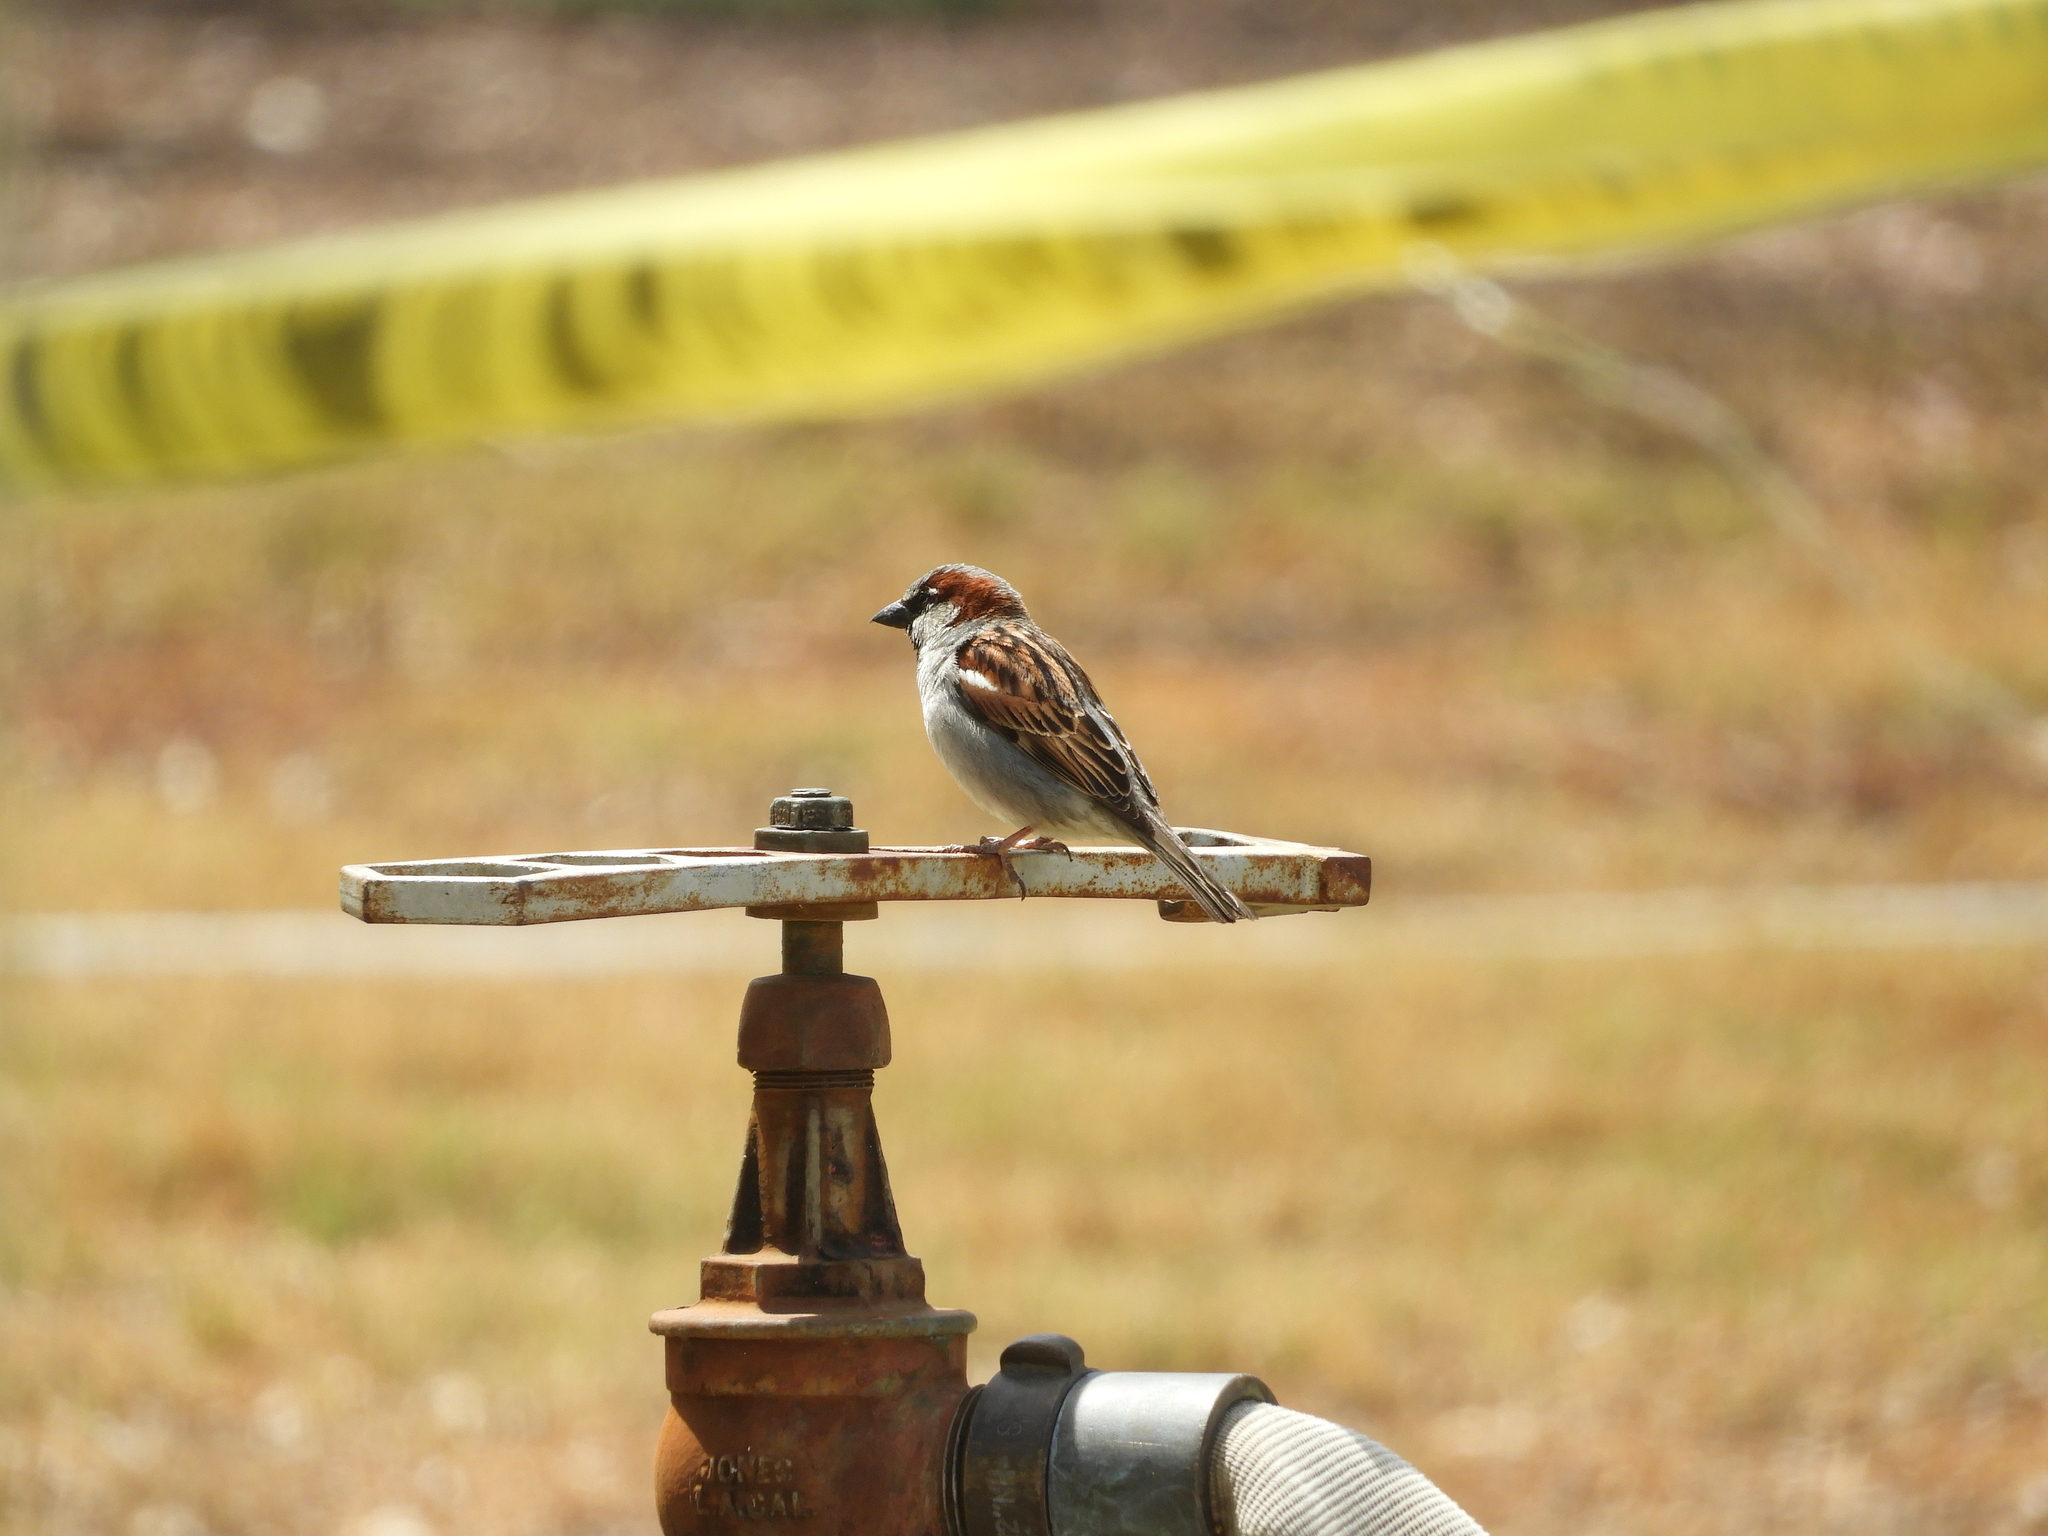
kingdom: Animalia
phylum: Chordata
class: Aves
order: Passeriformes
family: Passeridae
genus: Passer
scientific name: Passer domesticus
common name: House sparrow
